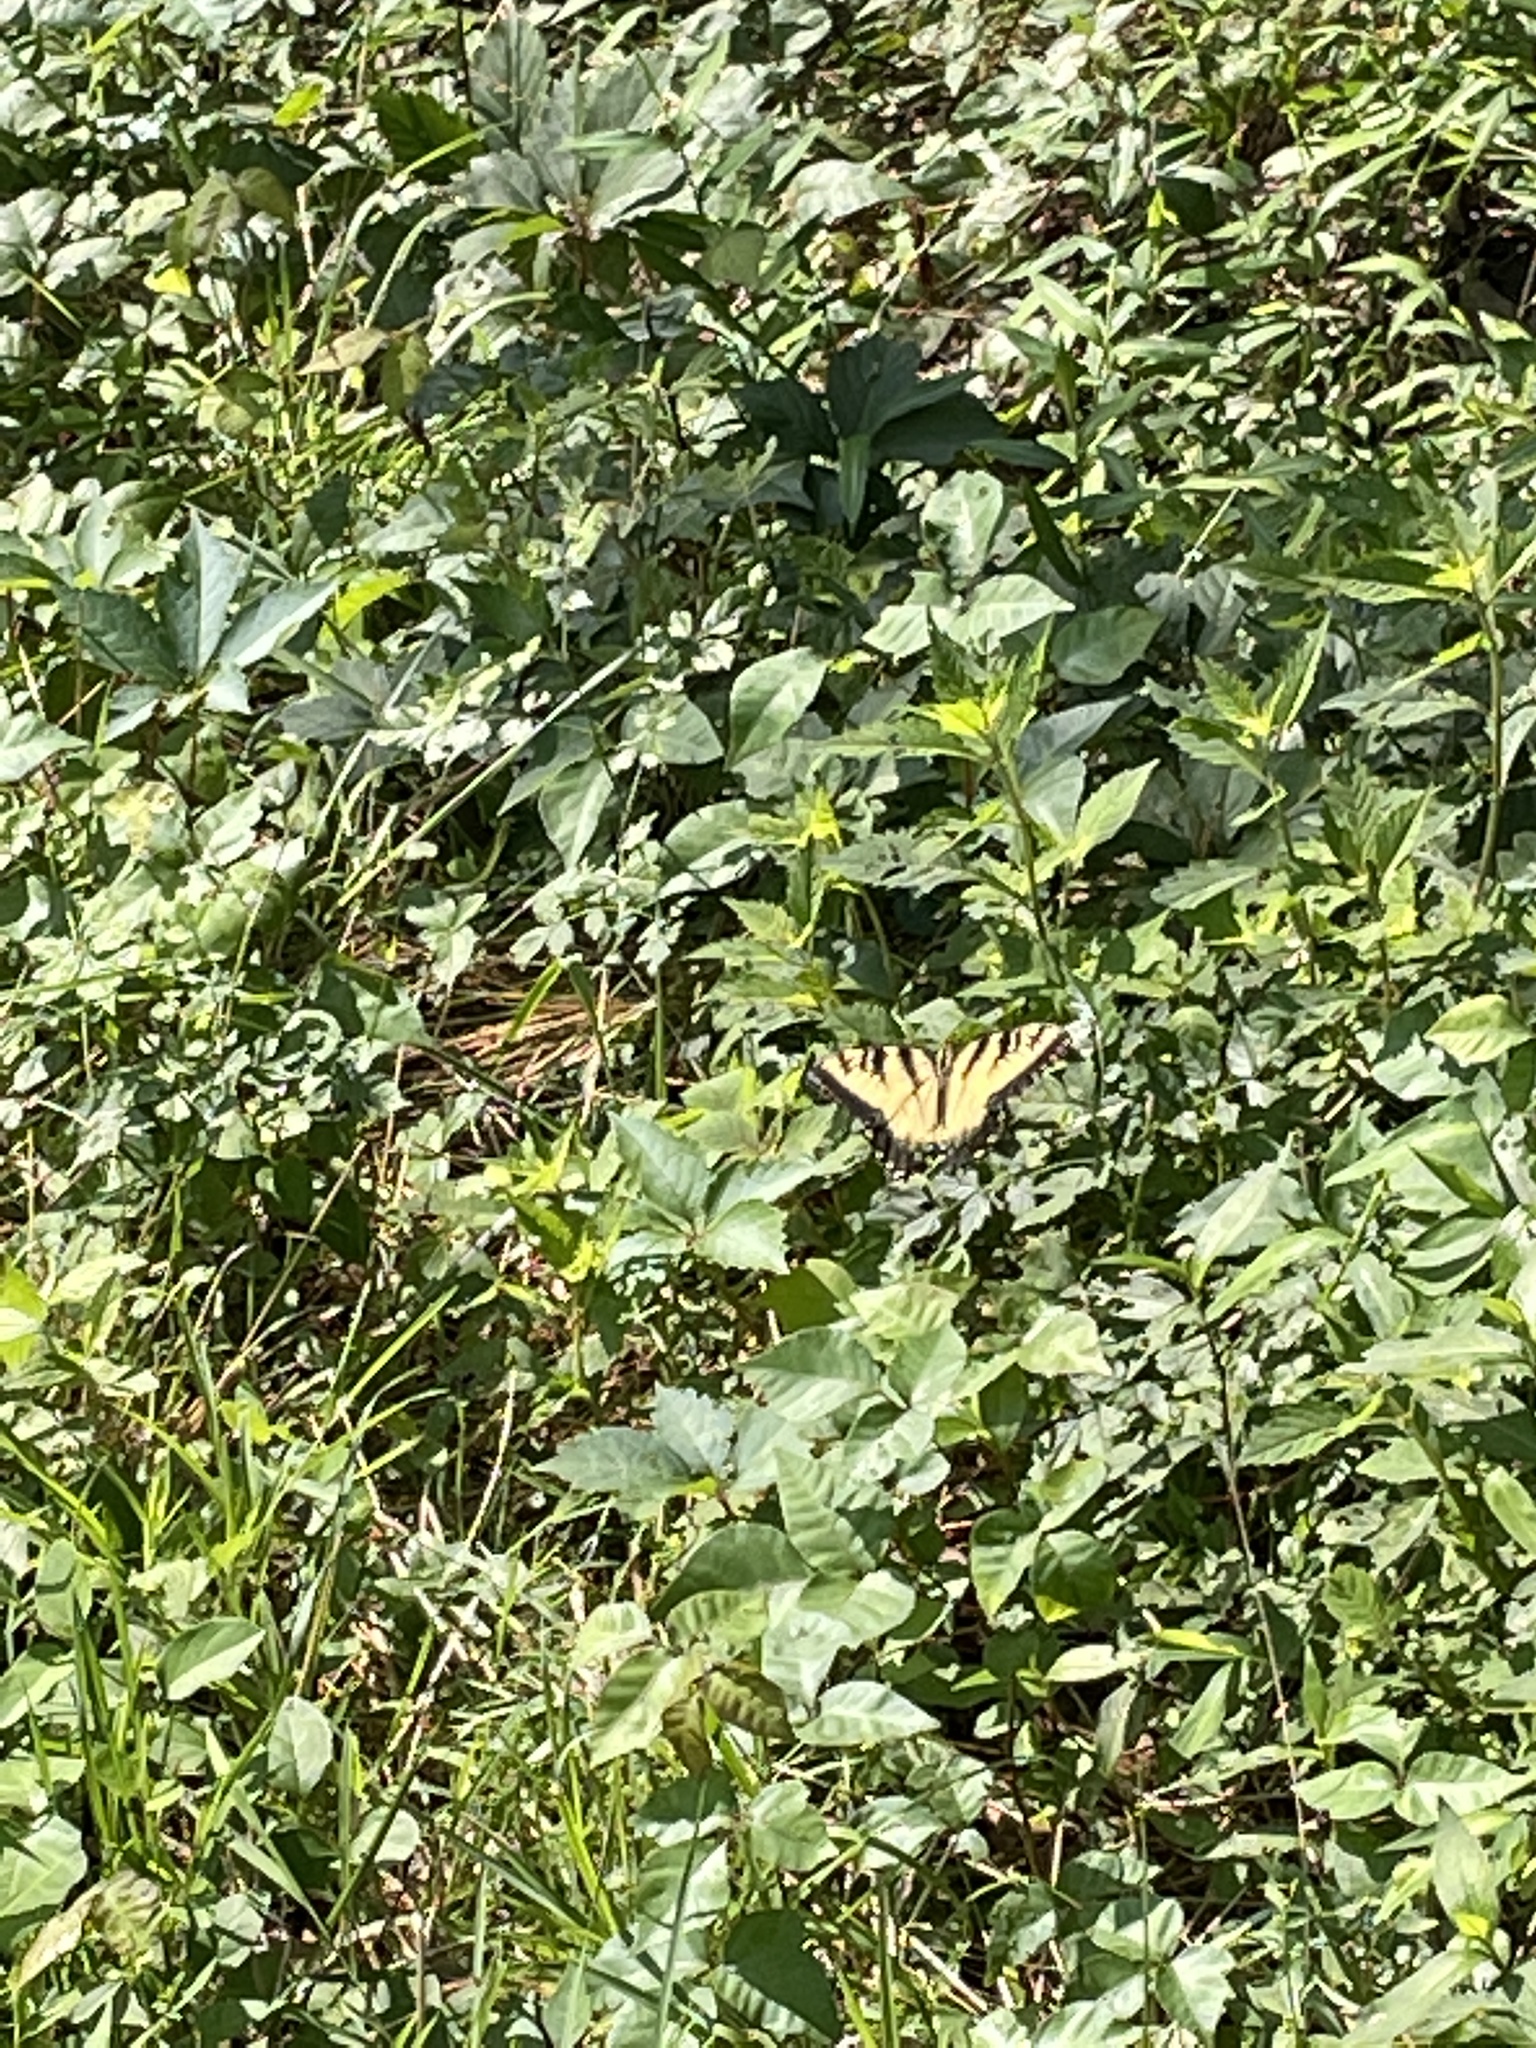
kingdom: Animalia
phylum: Arthropoda
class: Insecta
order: Lepidoptera
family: Papilionidae
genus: Papilio
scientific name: Papilio glaucus
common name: Tiger swallowtail
